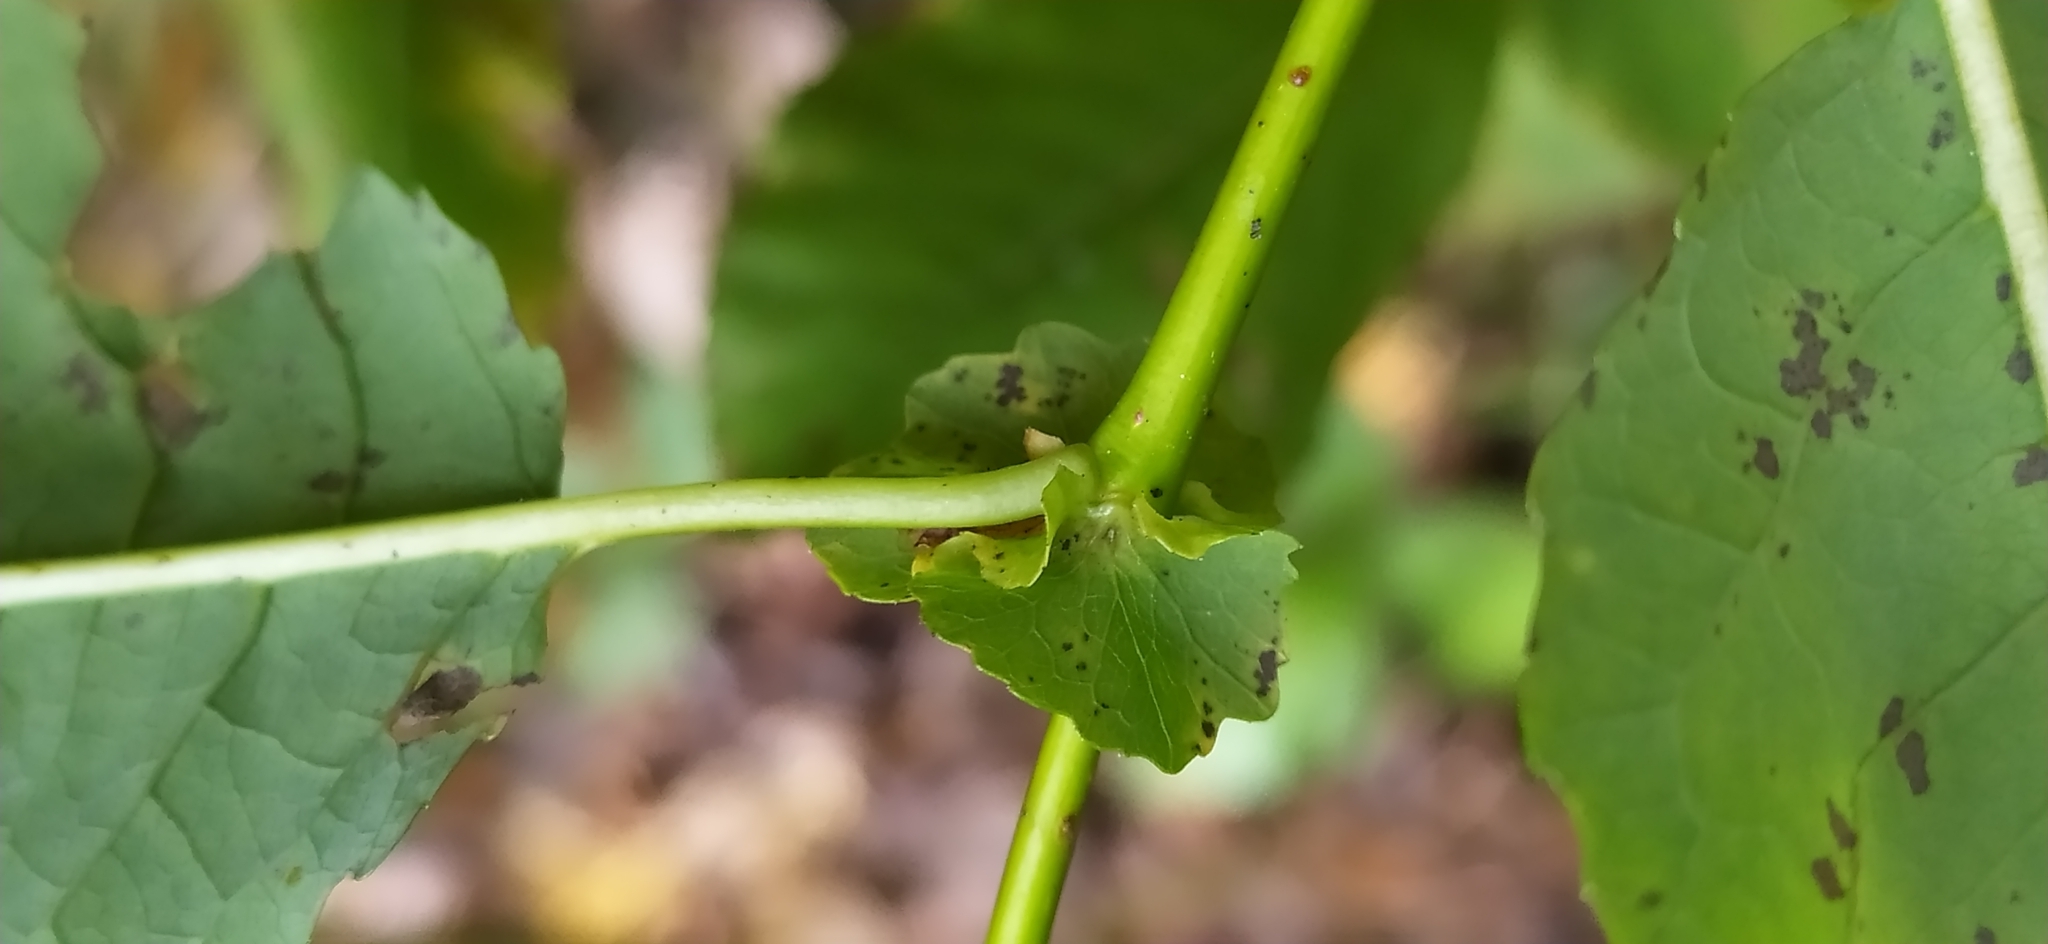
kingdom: Plantae
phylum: Tracheophyta
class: Magnoliopsida
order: Malpighiales
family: Salicaceae
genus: Salix
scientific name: Salix pyrolifolia
